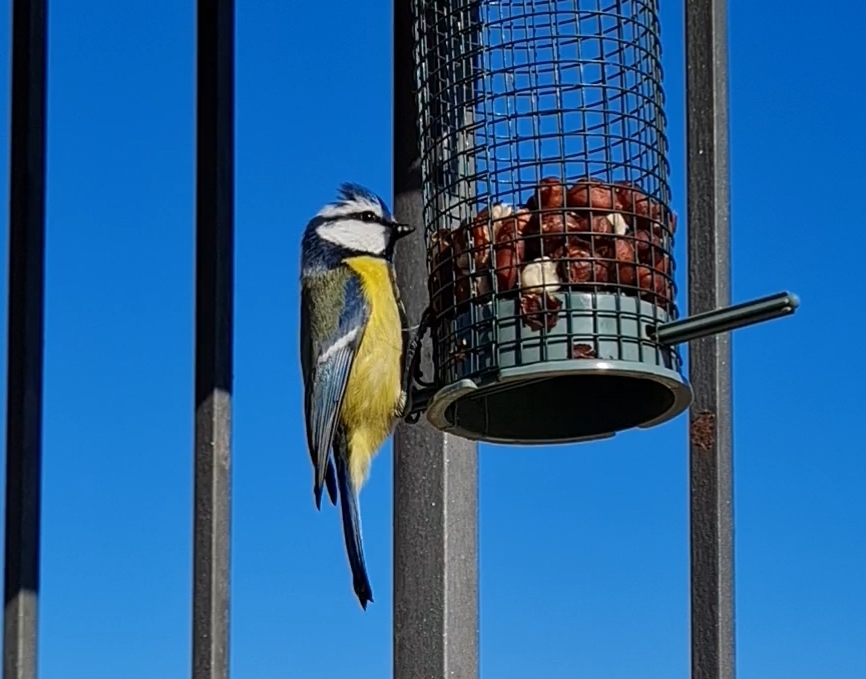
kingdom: Animalia
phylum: Chordata
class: Aves
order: Passeriformes
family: Paridae
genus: Cyanistes
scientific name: Cyanistes caeruleus
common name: Eurasian blue tit
